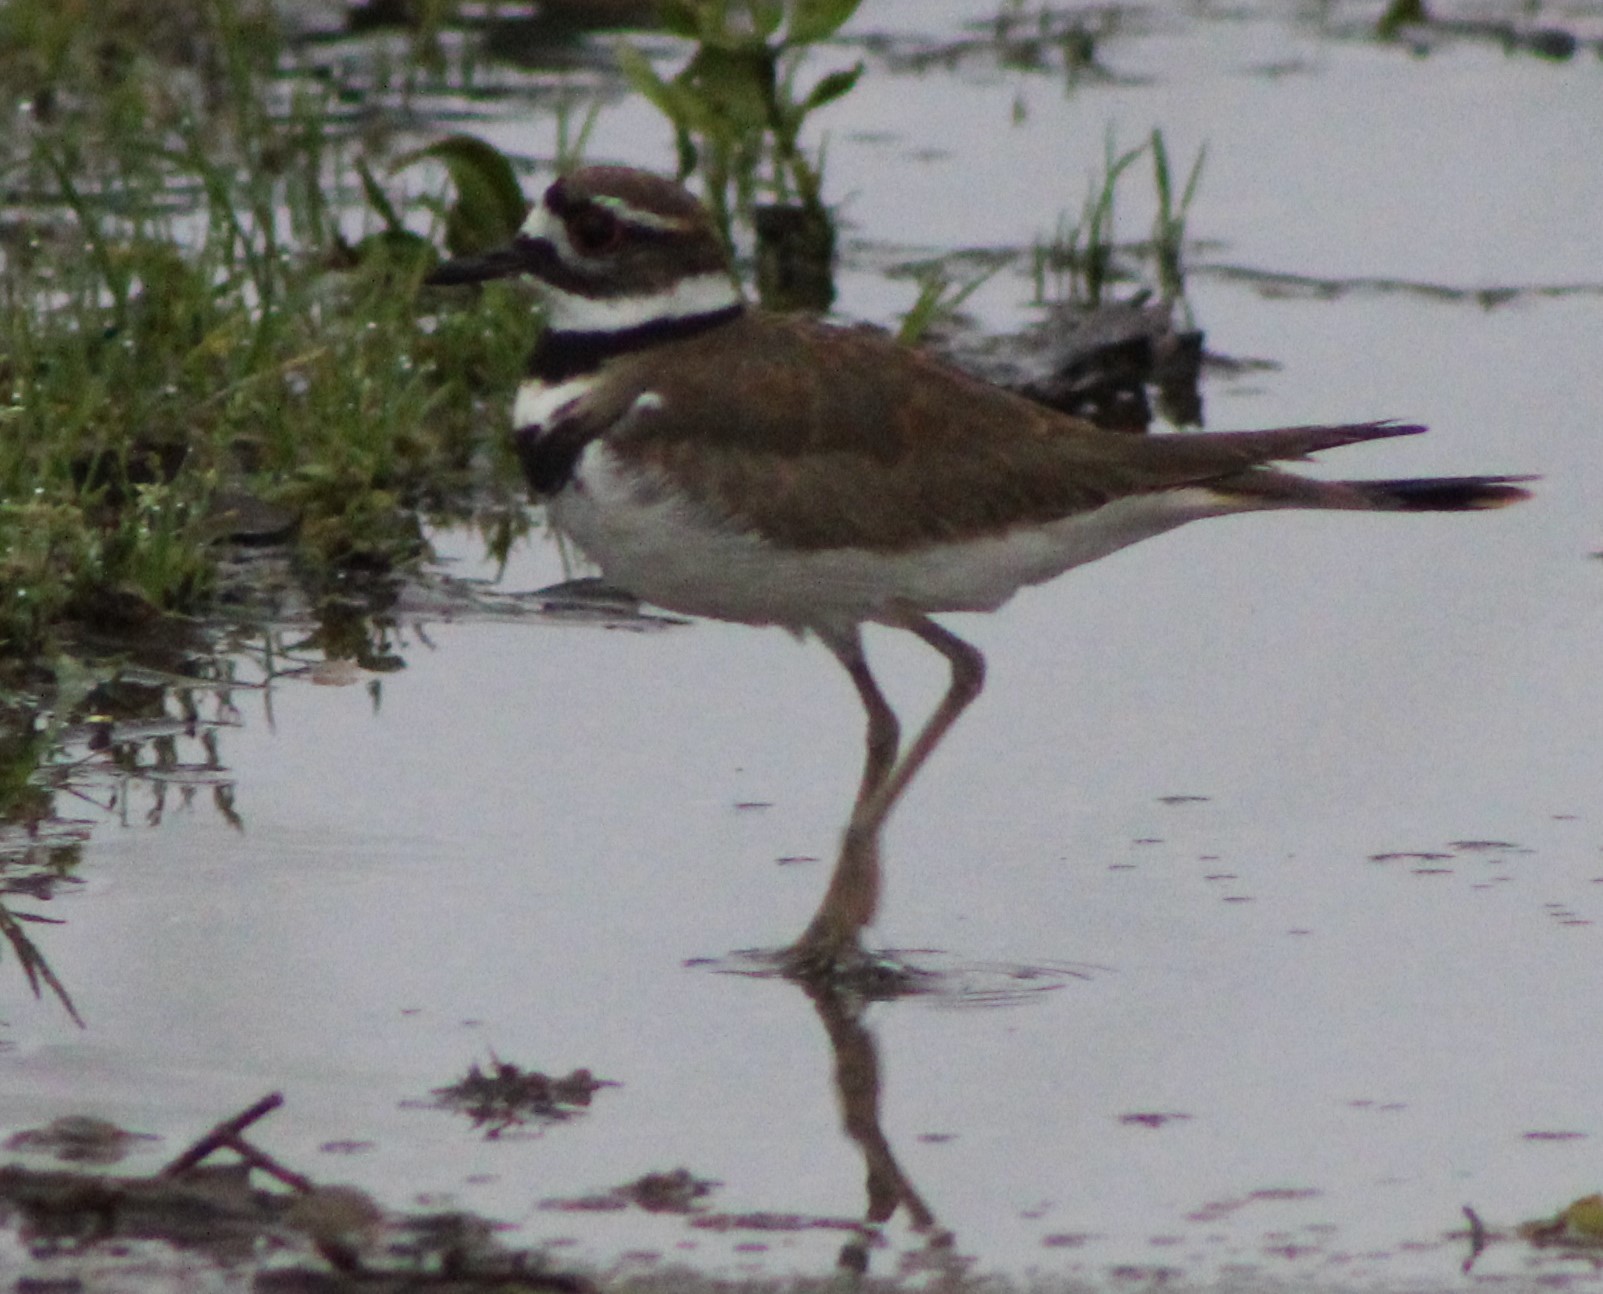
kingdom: Animalia
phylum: Chordata
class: Aves
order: Charadriiformes
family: Charadriidae
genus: Charadrius
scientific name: Charadrius vociferus
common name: Killdeer
